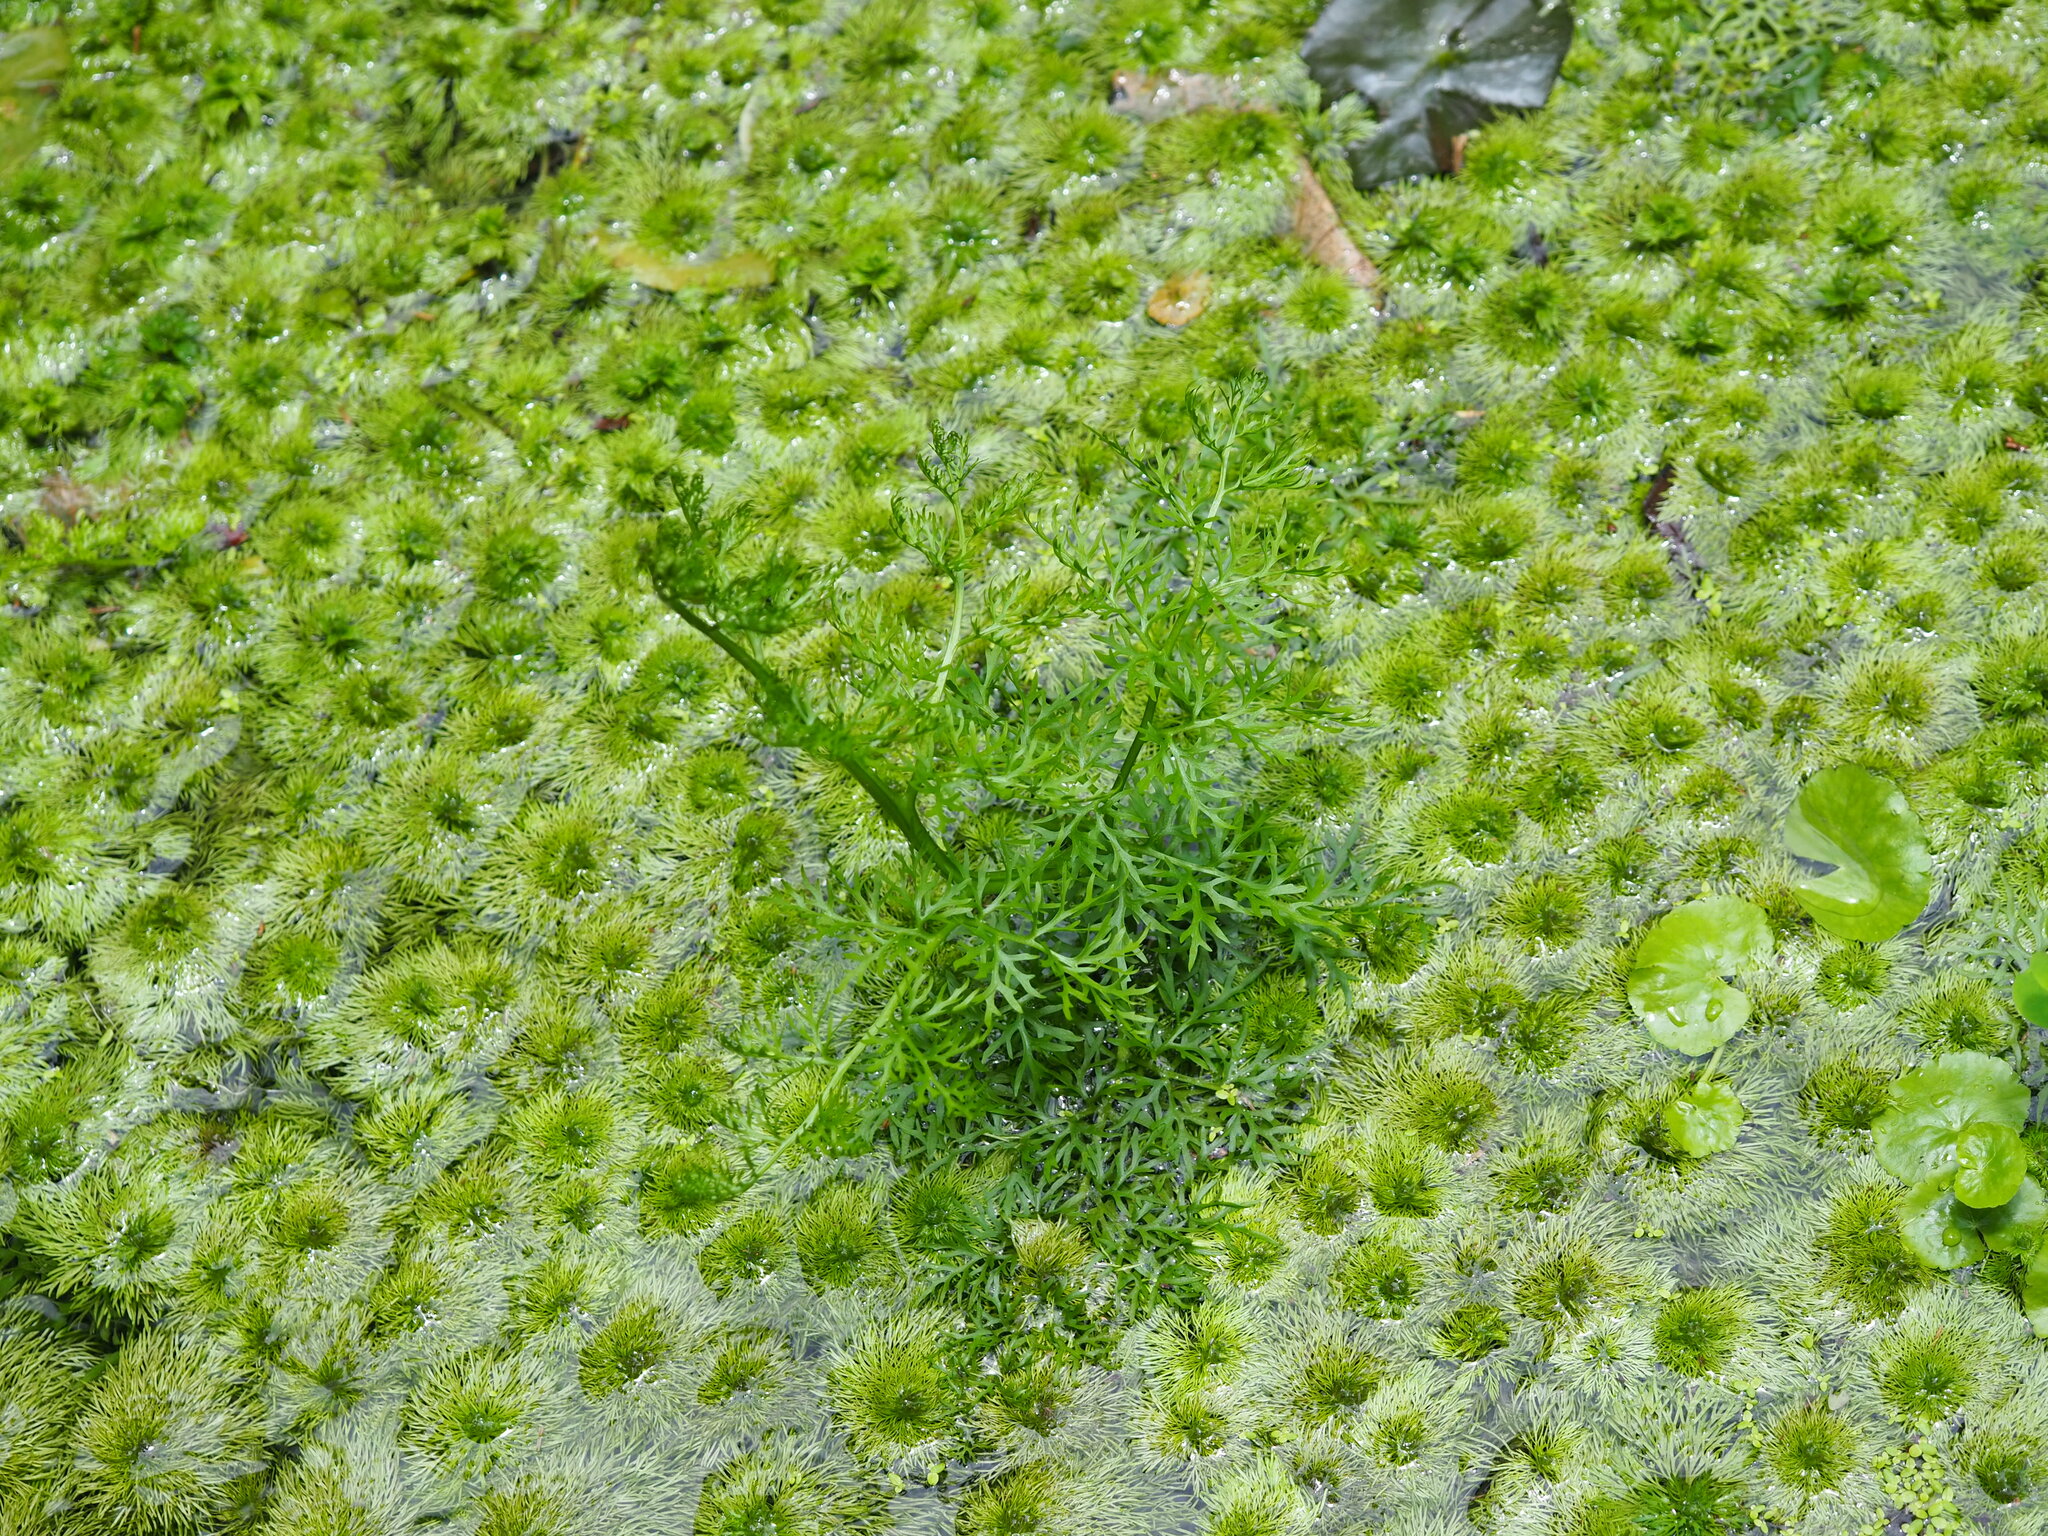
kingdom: Plantae
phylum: Tracheophyta
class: Polypodiopsida
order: Polypodiales
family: Pteridaceae
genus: Ceratopteris
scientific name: Ceratopteris thalictroides
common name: Water fern
